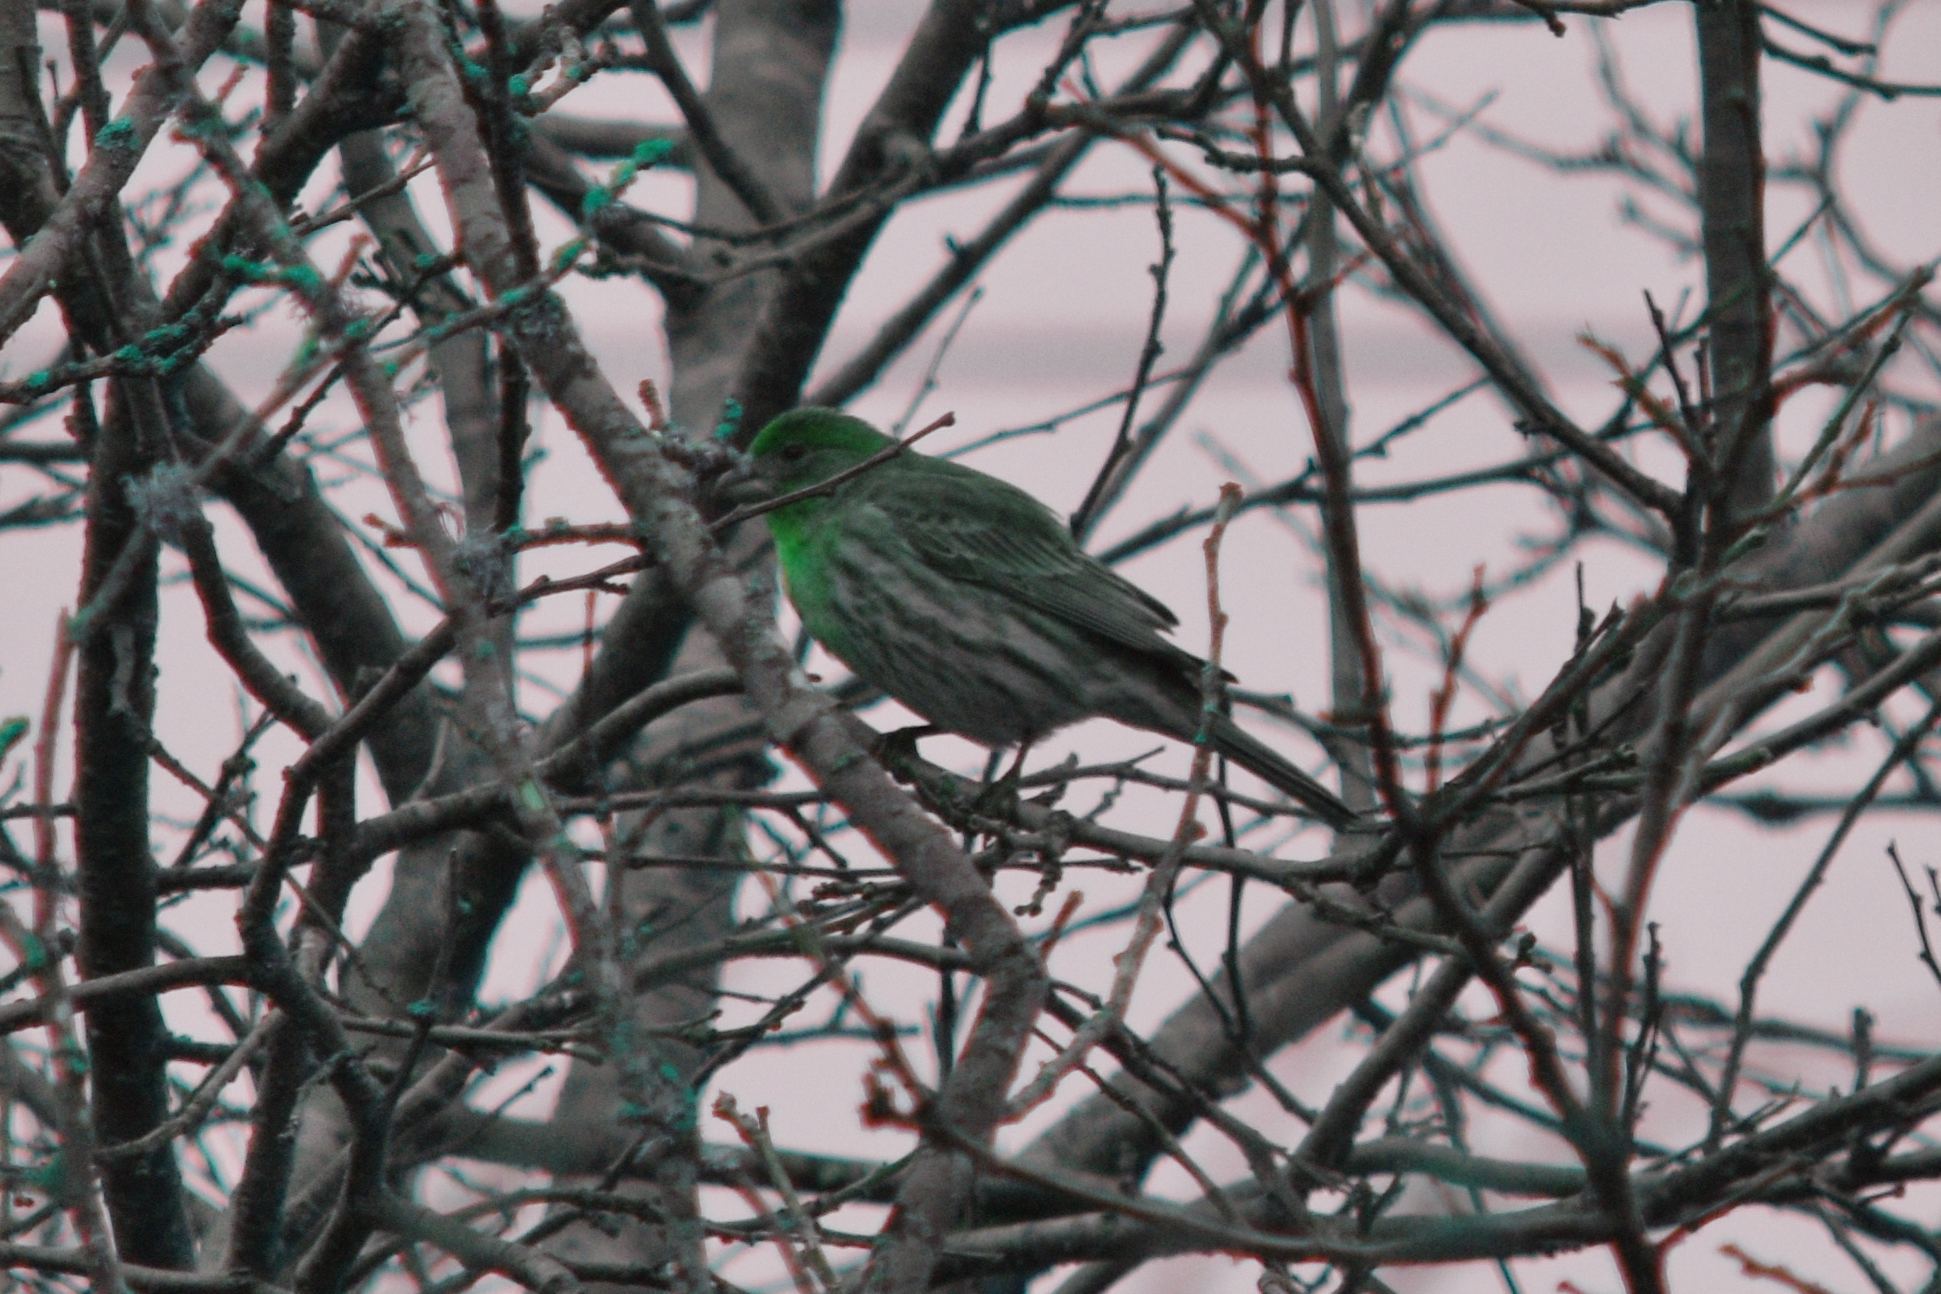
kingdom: Animalia
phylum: Chordata
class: Aves
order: Passeriformes
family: Fringillidae
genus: Haemorhous
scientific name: Haemorhous mexicanus
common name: House finch
